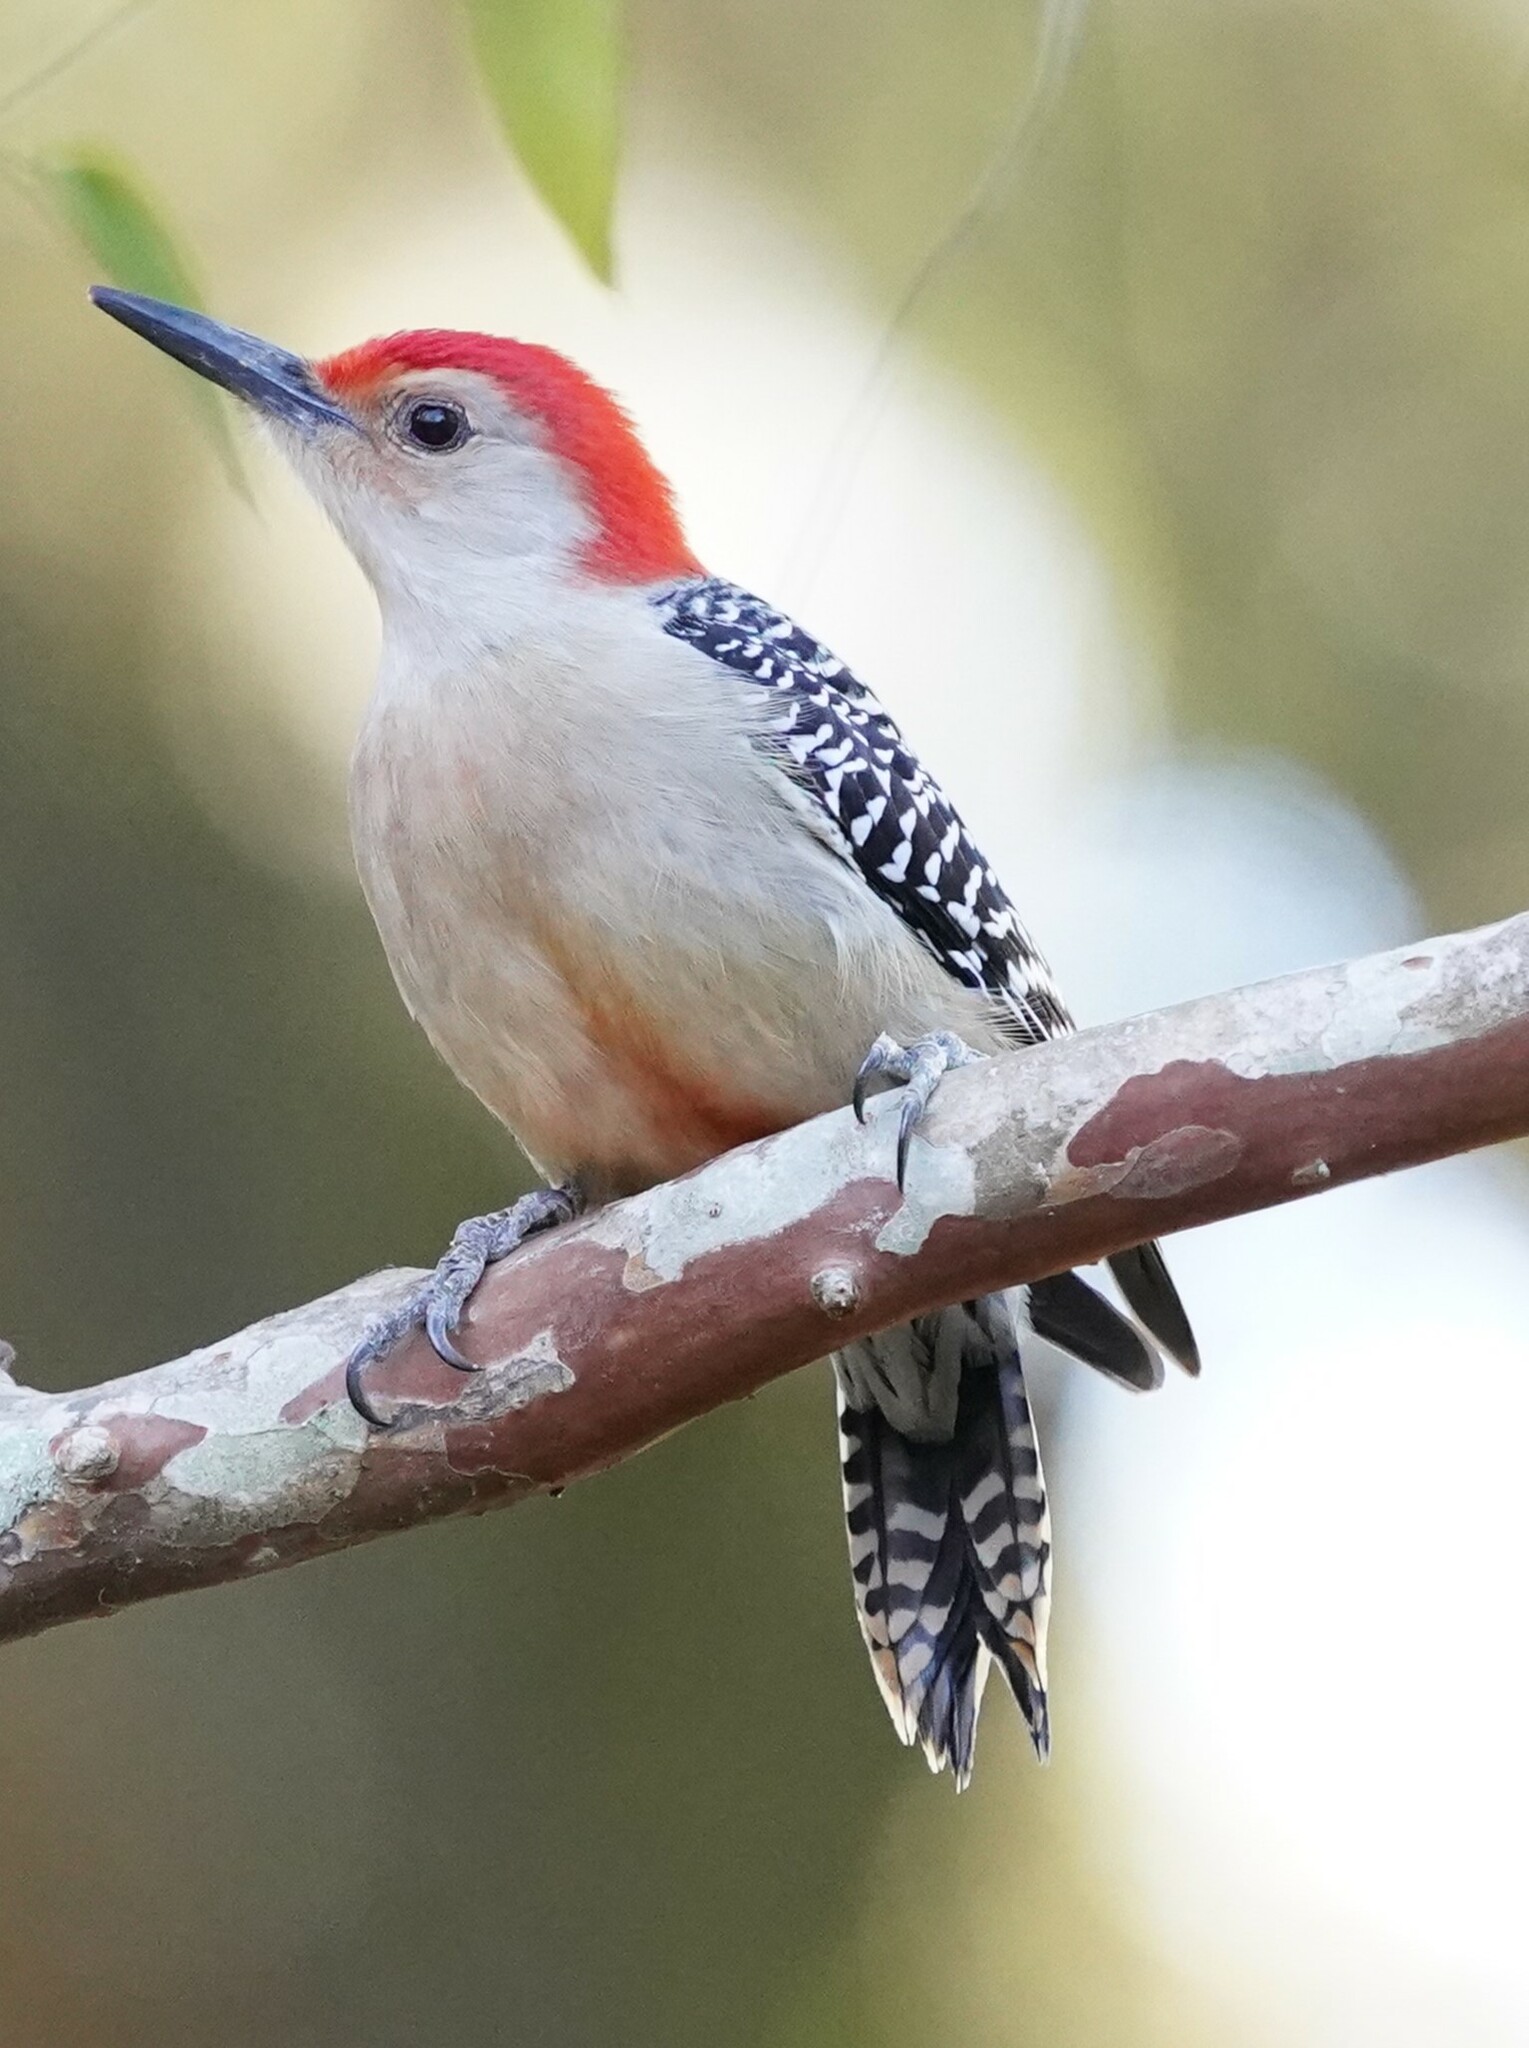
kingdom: Animalia
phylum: Chordata
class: Aves
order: Piciformes
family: Picidae
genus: Melanerpes
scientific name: Melanerpes carolinus
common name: Red-bellied woodpecker
